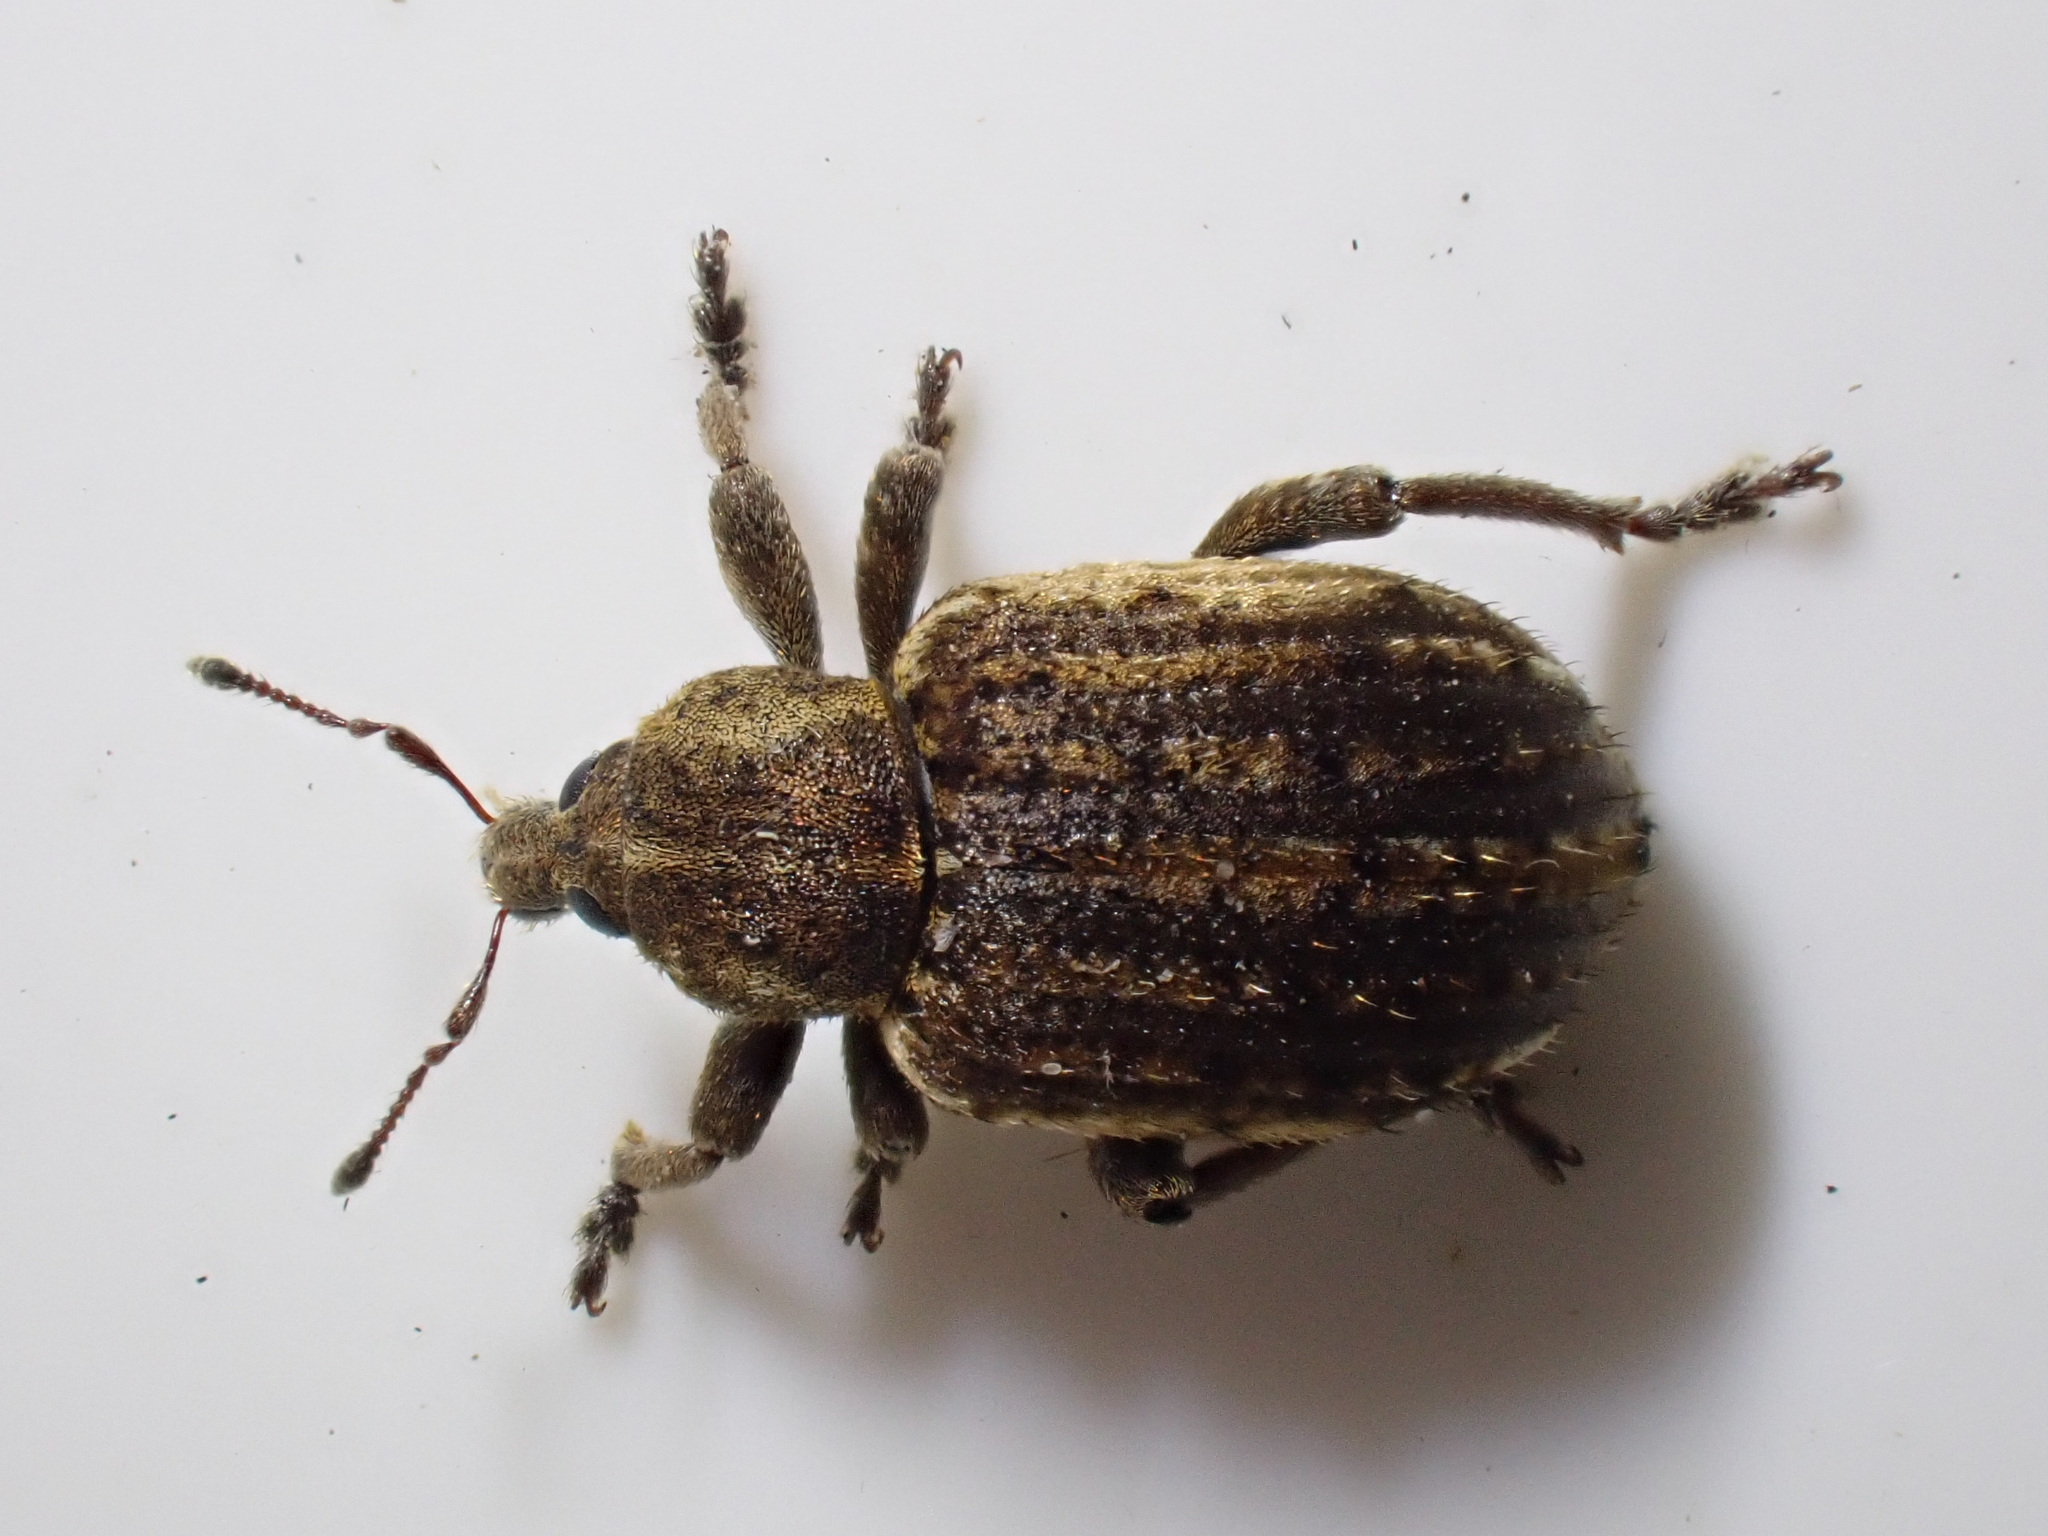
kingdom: Animalia
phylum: Arthropoda
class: Insecta
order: Coleoptera
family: Curculionidae
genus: Brachypera
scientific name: Brachypera zoilus
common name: Clover leaf weevil
